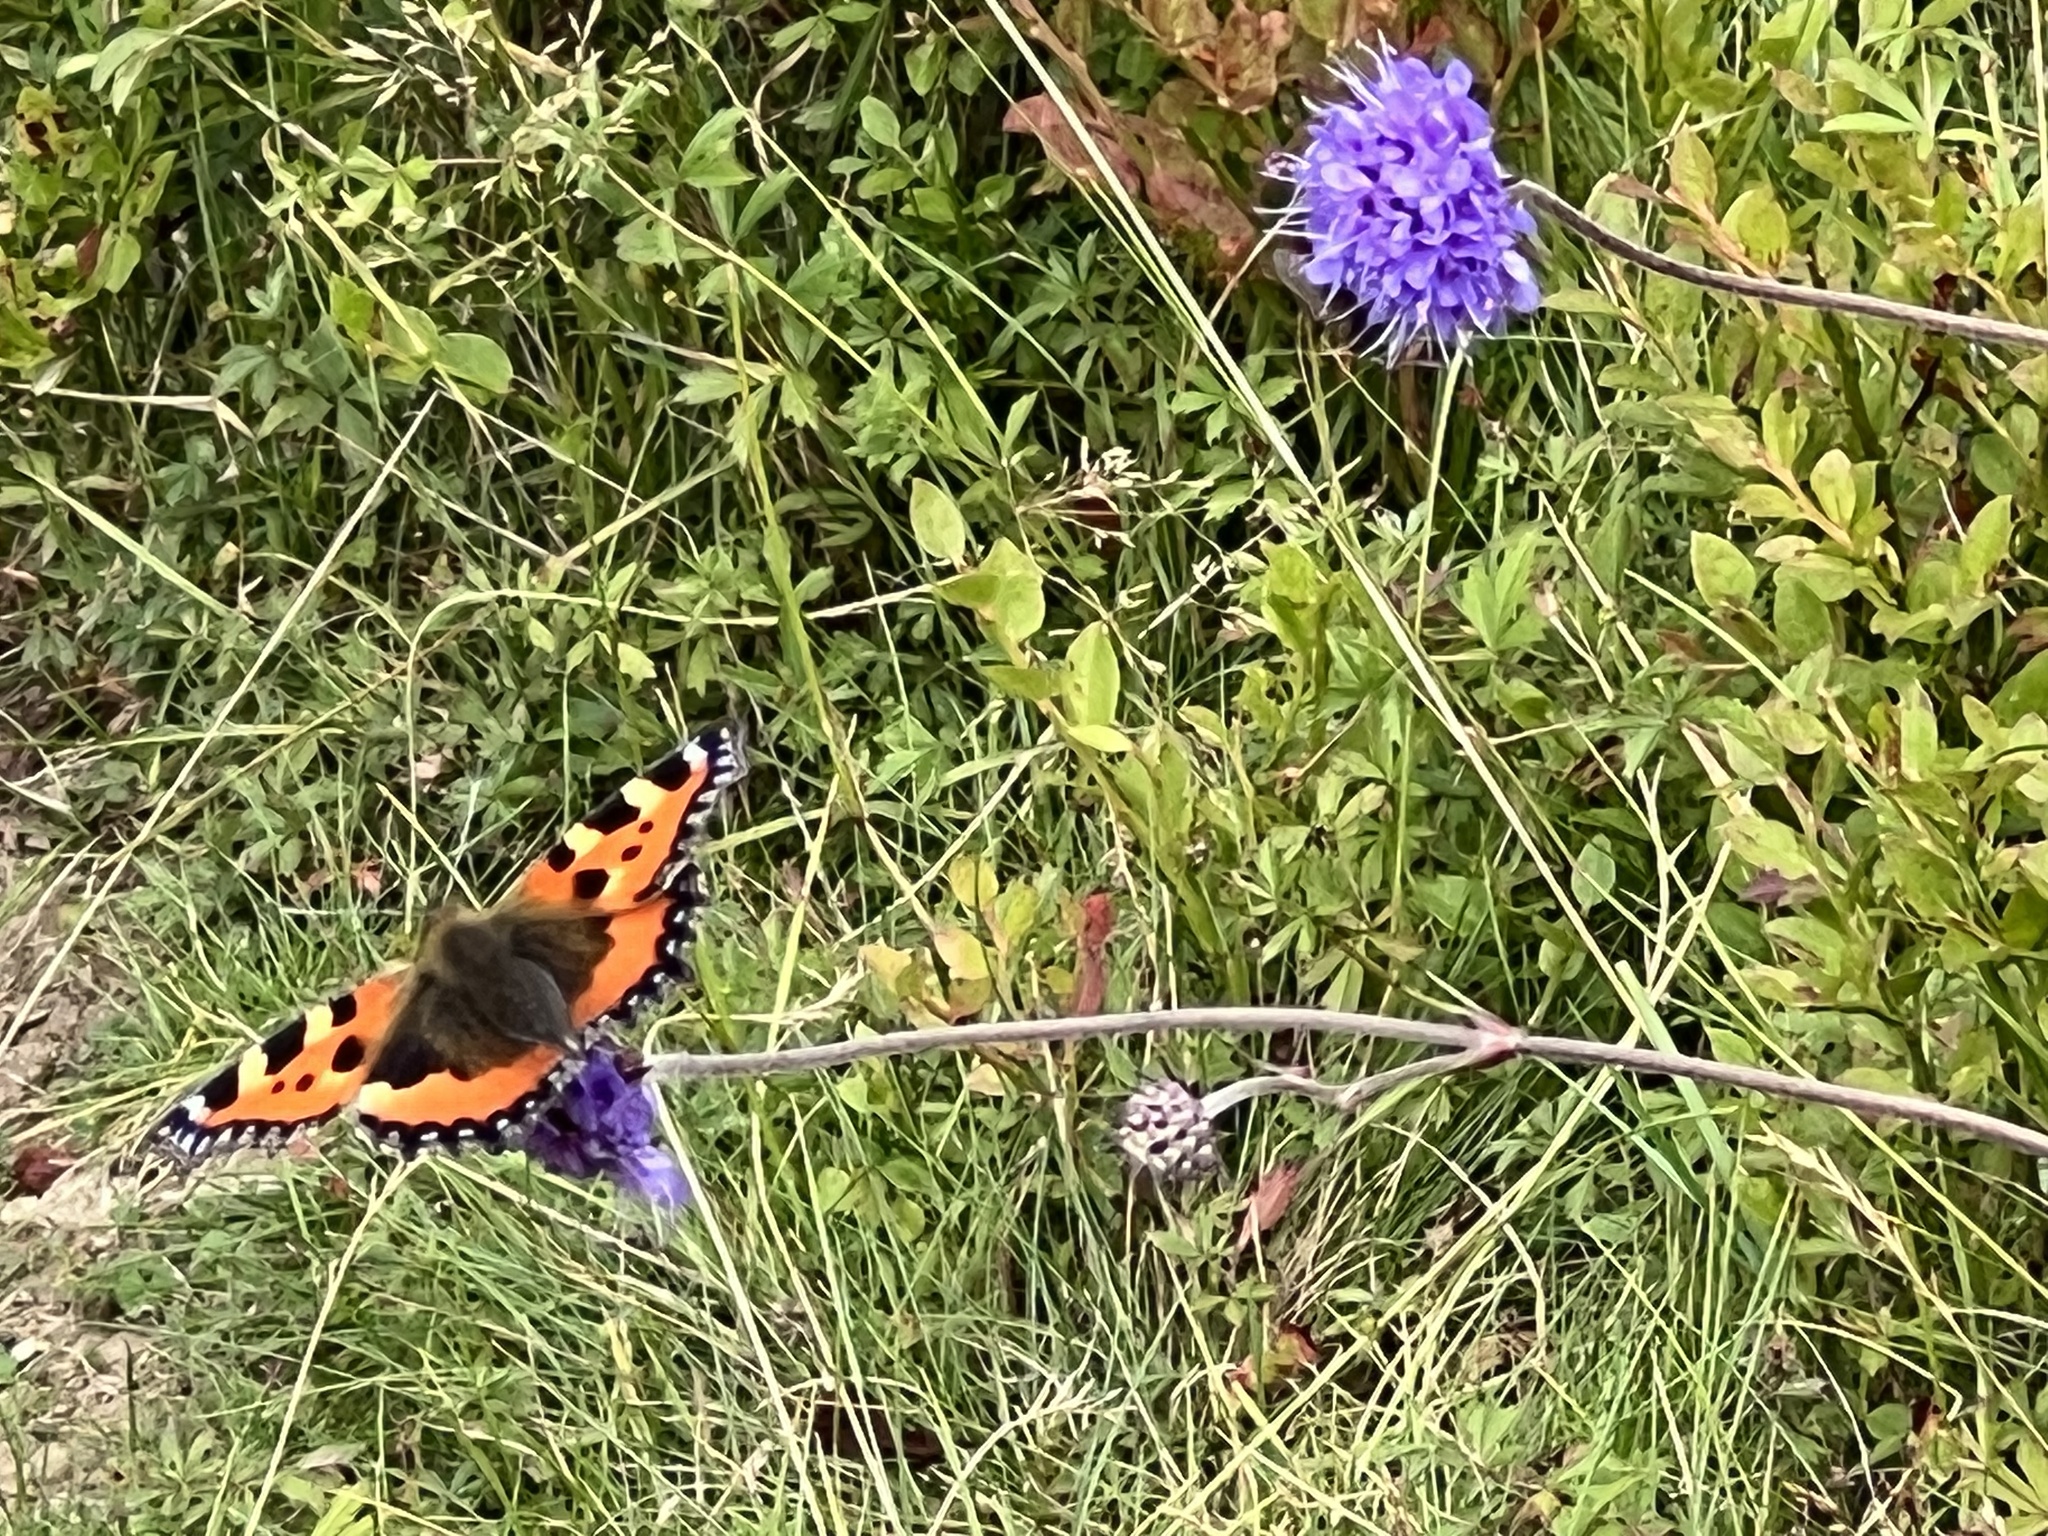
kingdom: Animalia
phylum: Arthropoda
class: Insecta
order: Lepidoptera
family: Nymphalidae
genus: Aglais
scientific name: Aglais urticae
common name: Small tortoiseshell
